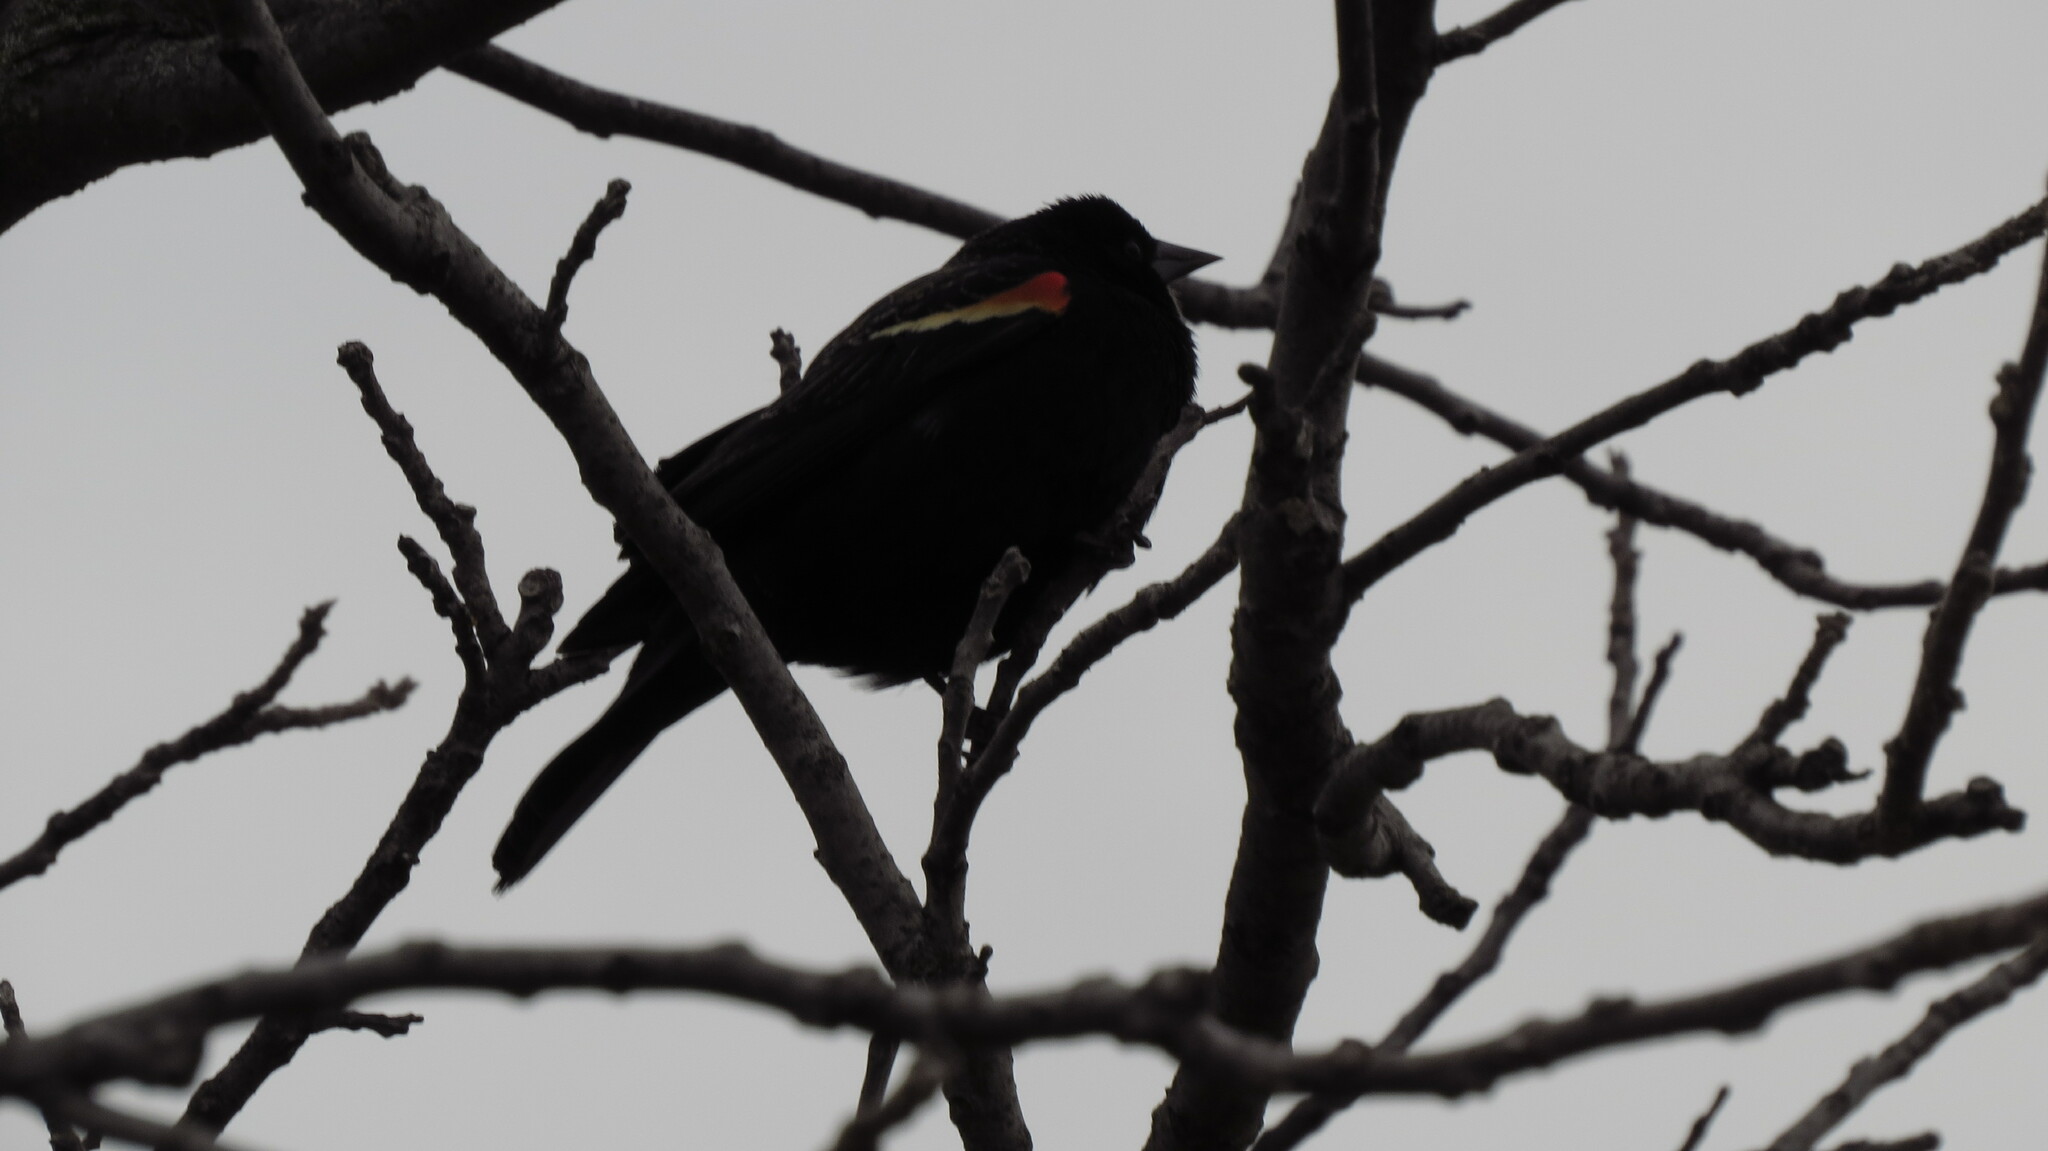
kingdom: Animalia
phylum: Chordata
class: Aves
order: Passeriformes
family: Icteridae
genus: Agelaius
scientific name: Agelaius phoeniceus
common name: Red-winged blackbird
